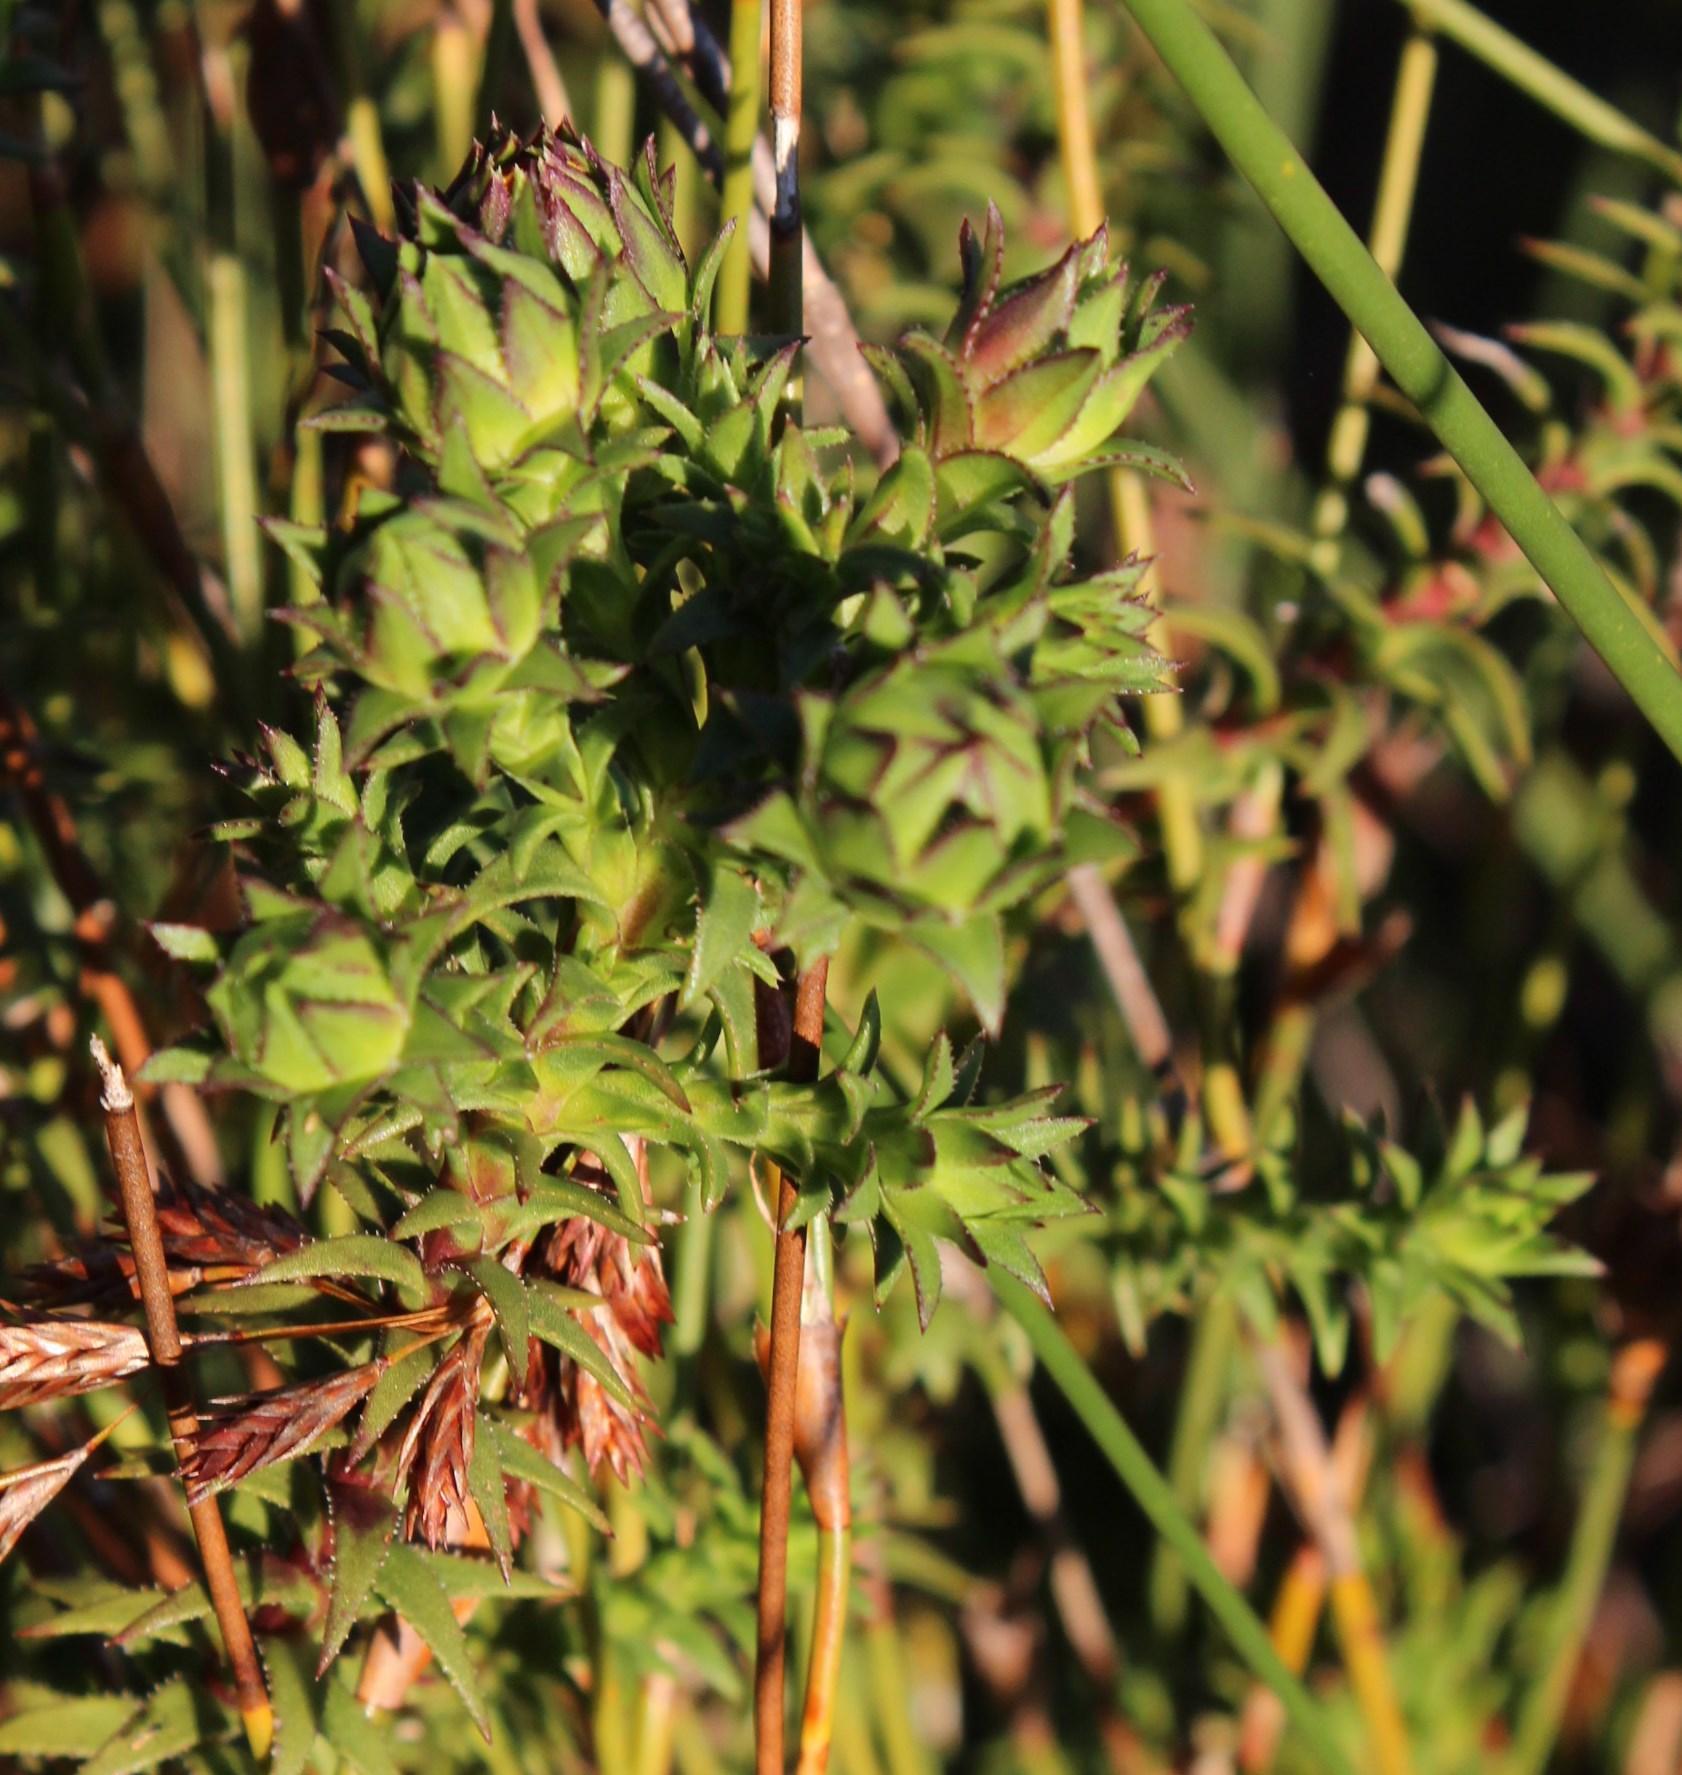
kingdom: Plantae
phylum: Tracheophyta
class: Magnoliopsida
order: Asterales
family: Asteraceae
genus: Oedera
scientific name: Oedera imbricata
